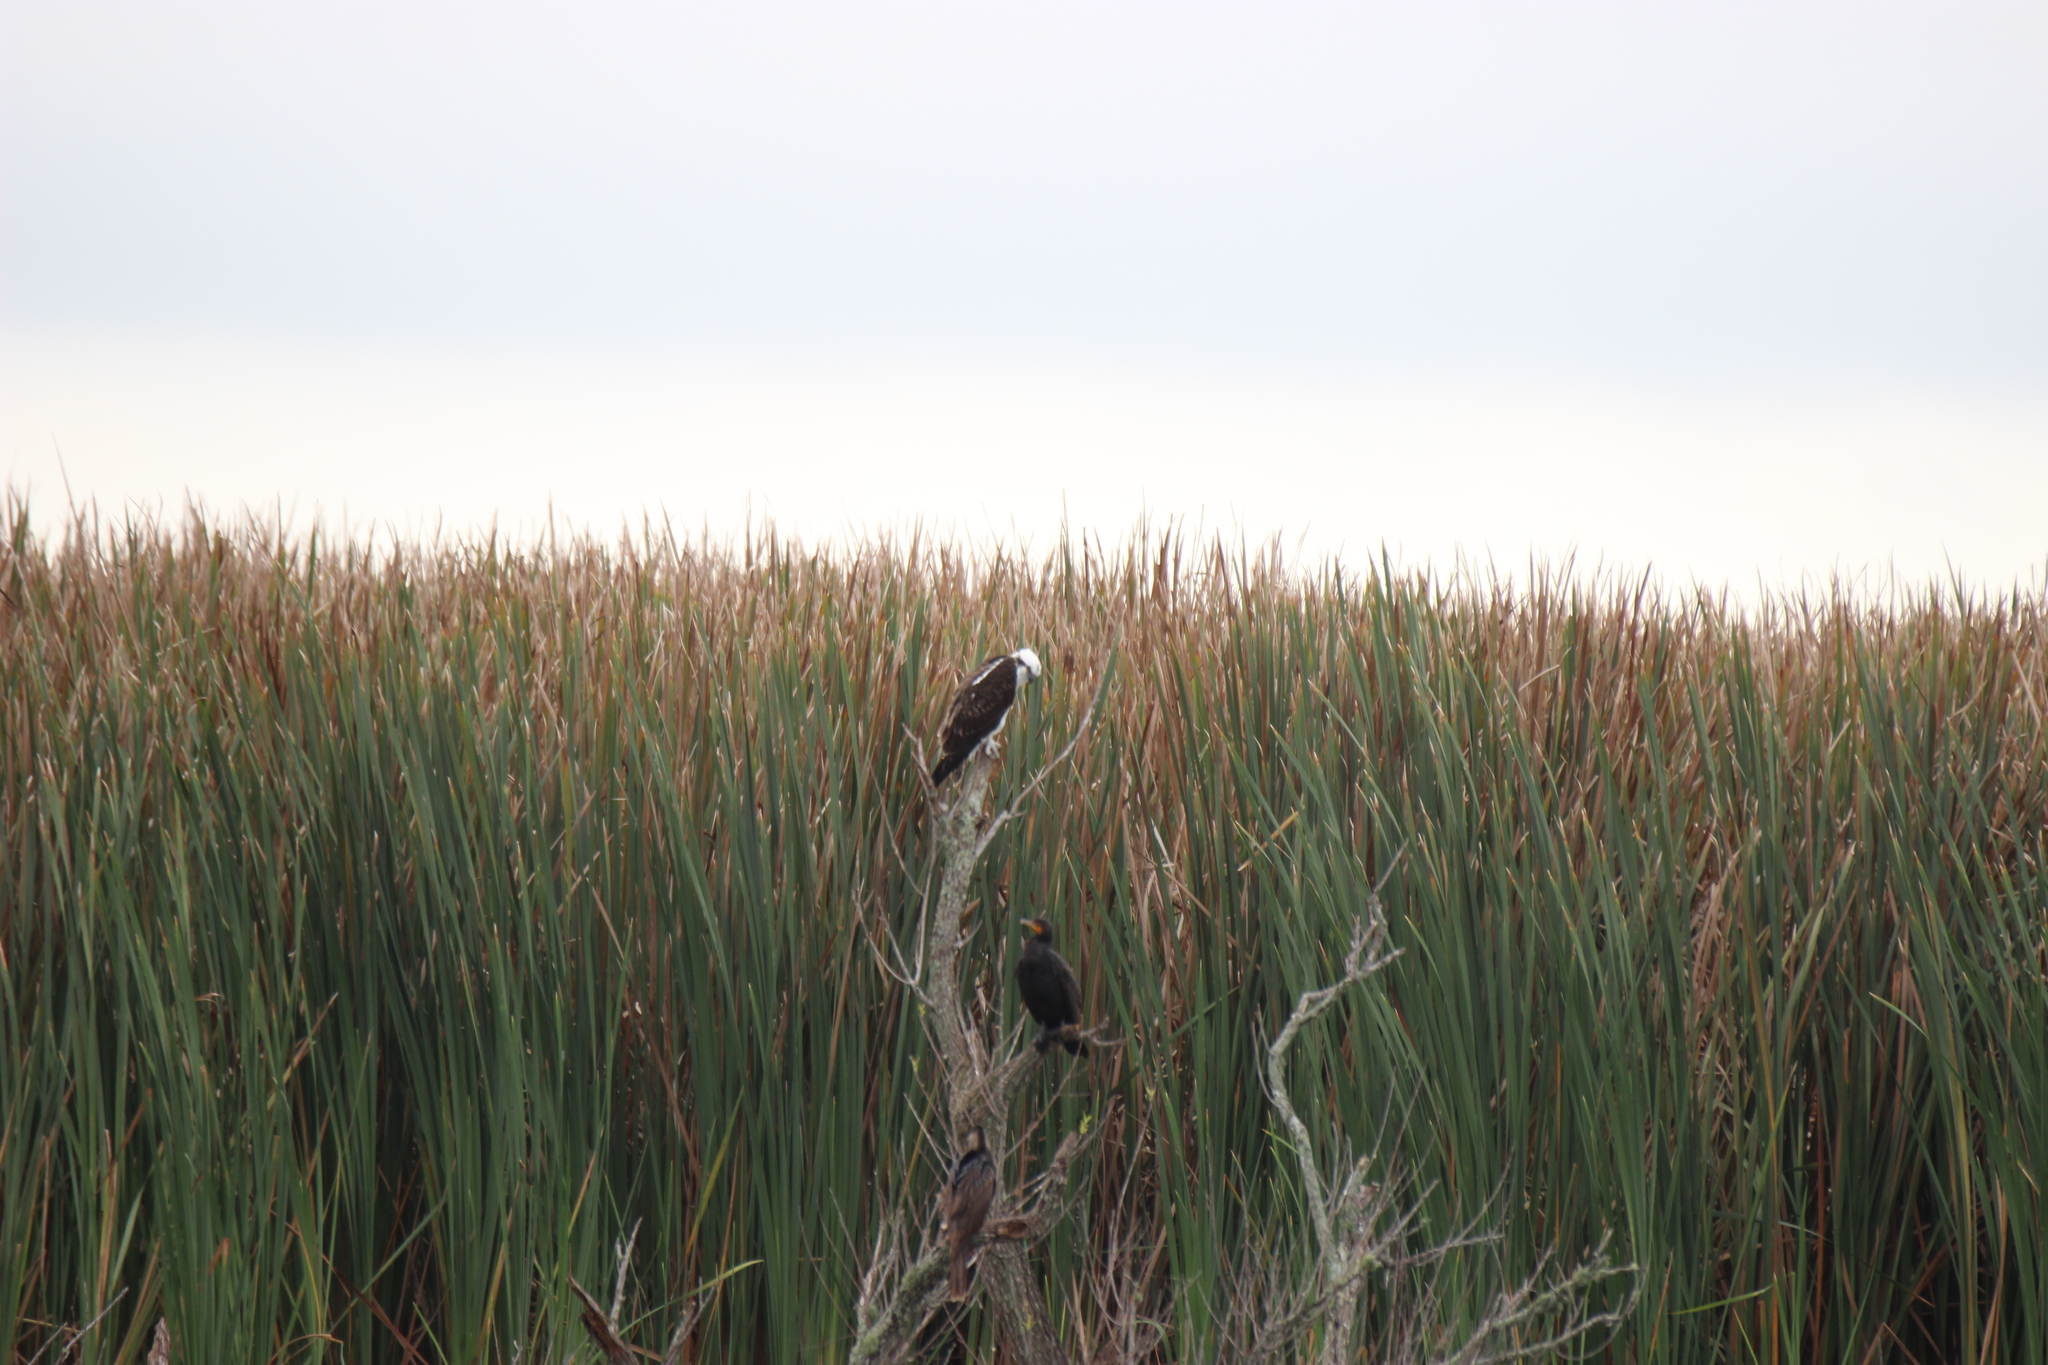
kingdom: Animalia
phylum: Chordata
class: Aves
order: Accipitriformes
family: Pandionidae
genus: Pandion
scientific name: Pandion haliaetus
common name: Osprey
